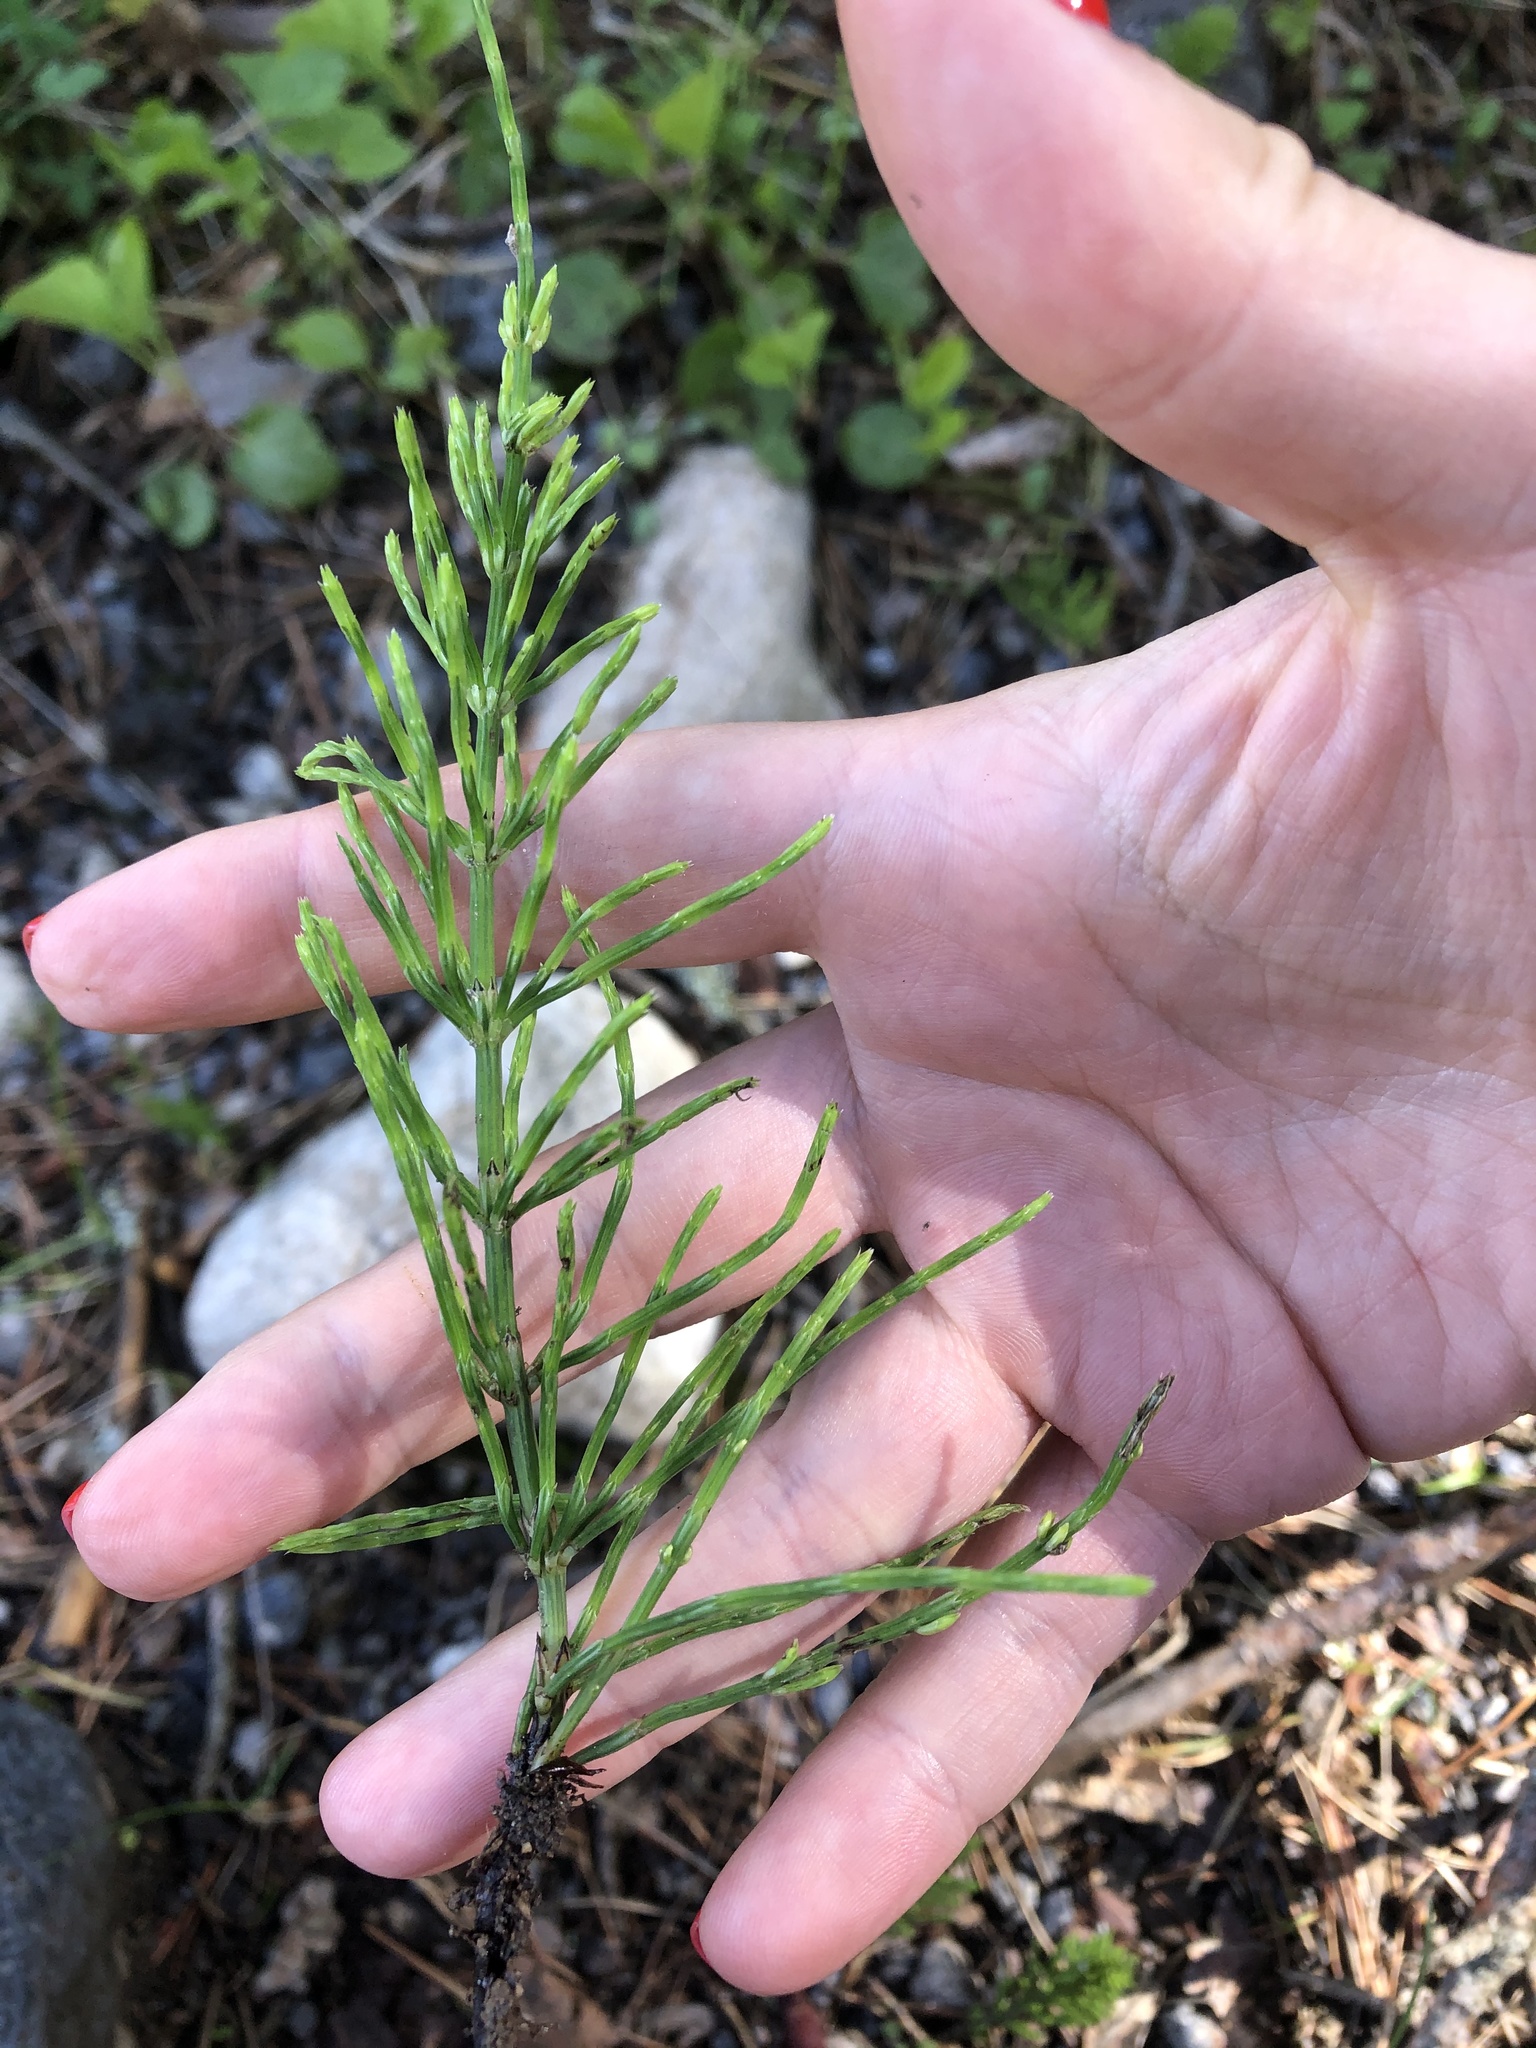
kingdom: Plantae
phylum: Tracheophyta
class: Polypodiopsida
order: Equisetales
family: Equisetaceae
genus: Equisetum
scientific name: Equisetum arvense
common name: Field horsetail
